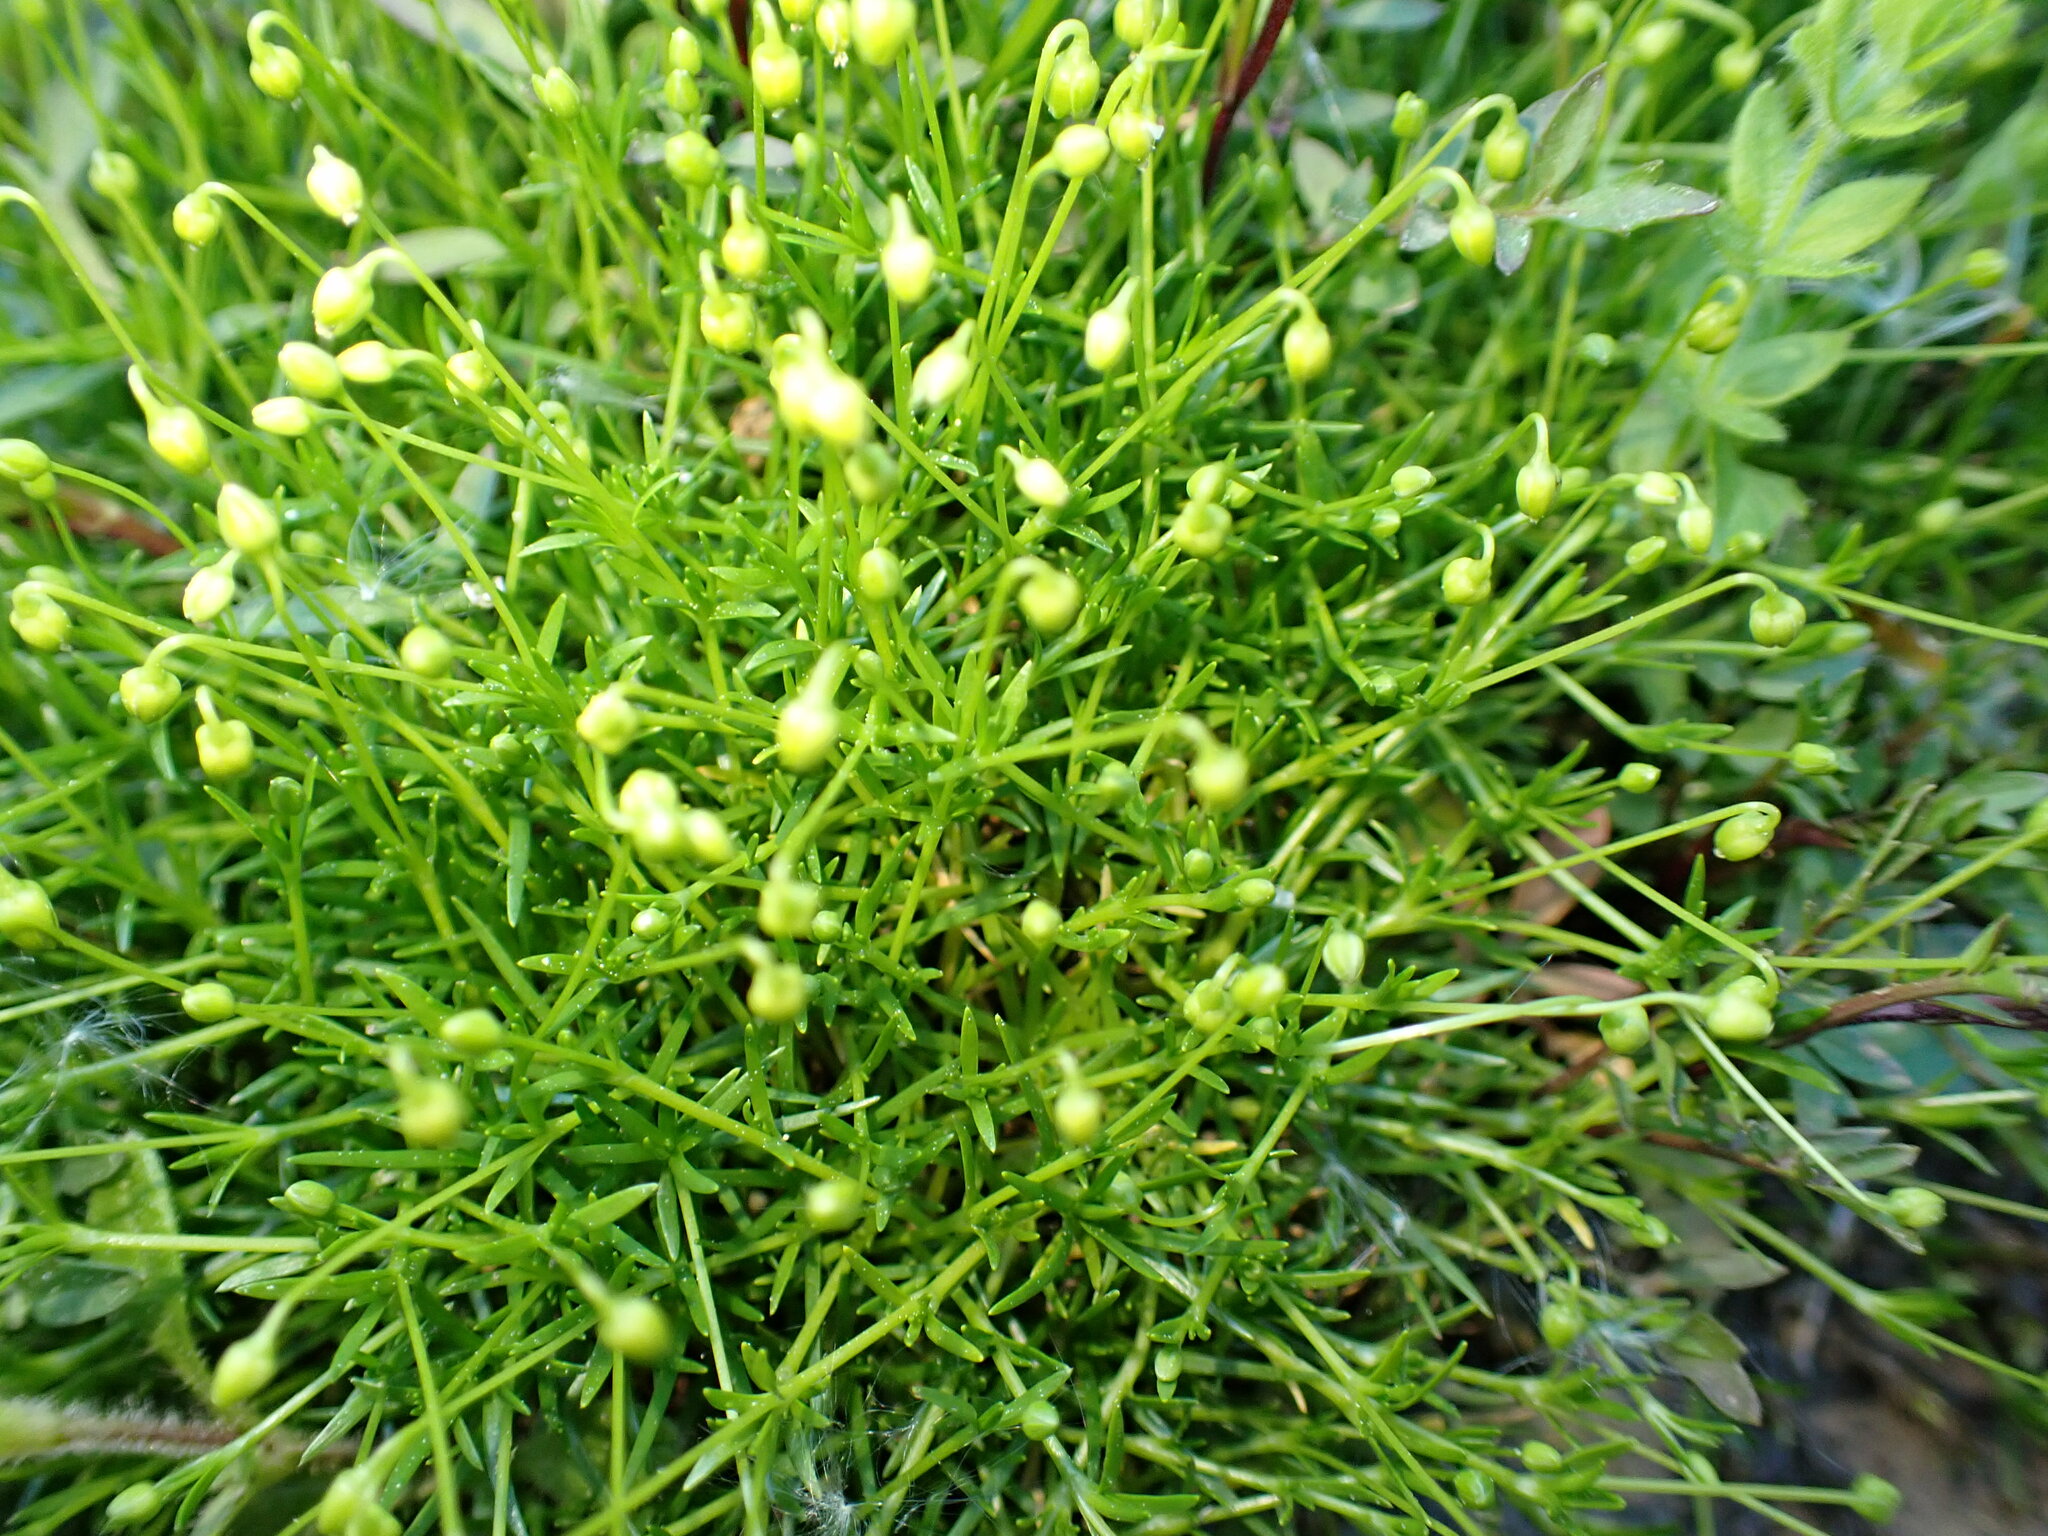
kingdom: Plantae
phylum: Tracheophyta
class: Magnoliopsida
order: Caryophyllales
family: Caryophyllaceae
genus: Sagina
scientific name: Sagina procumbens
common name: Procumbent pearlwort
